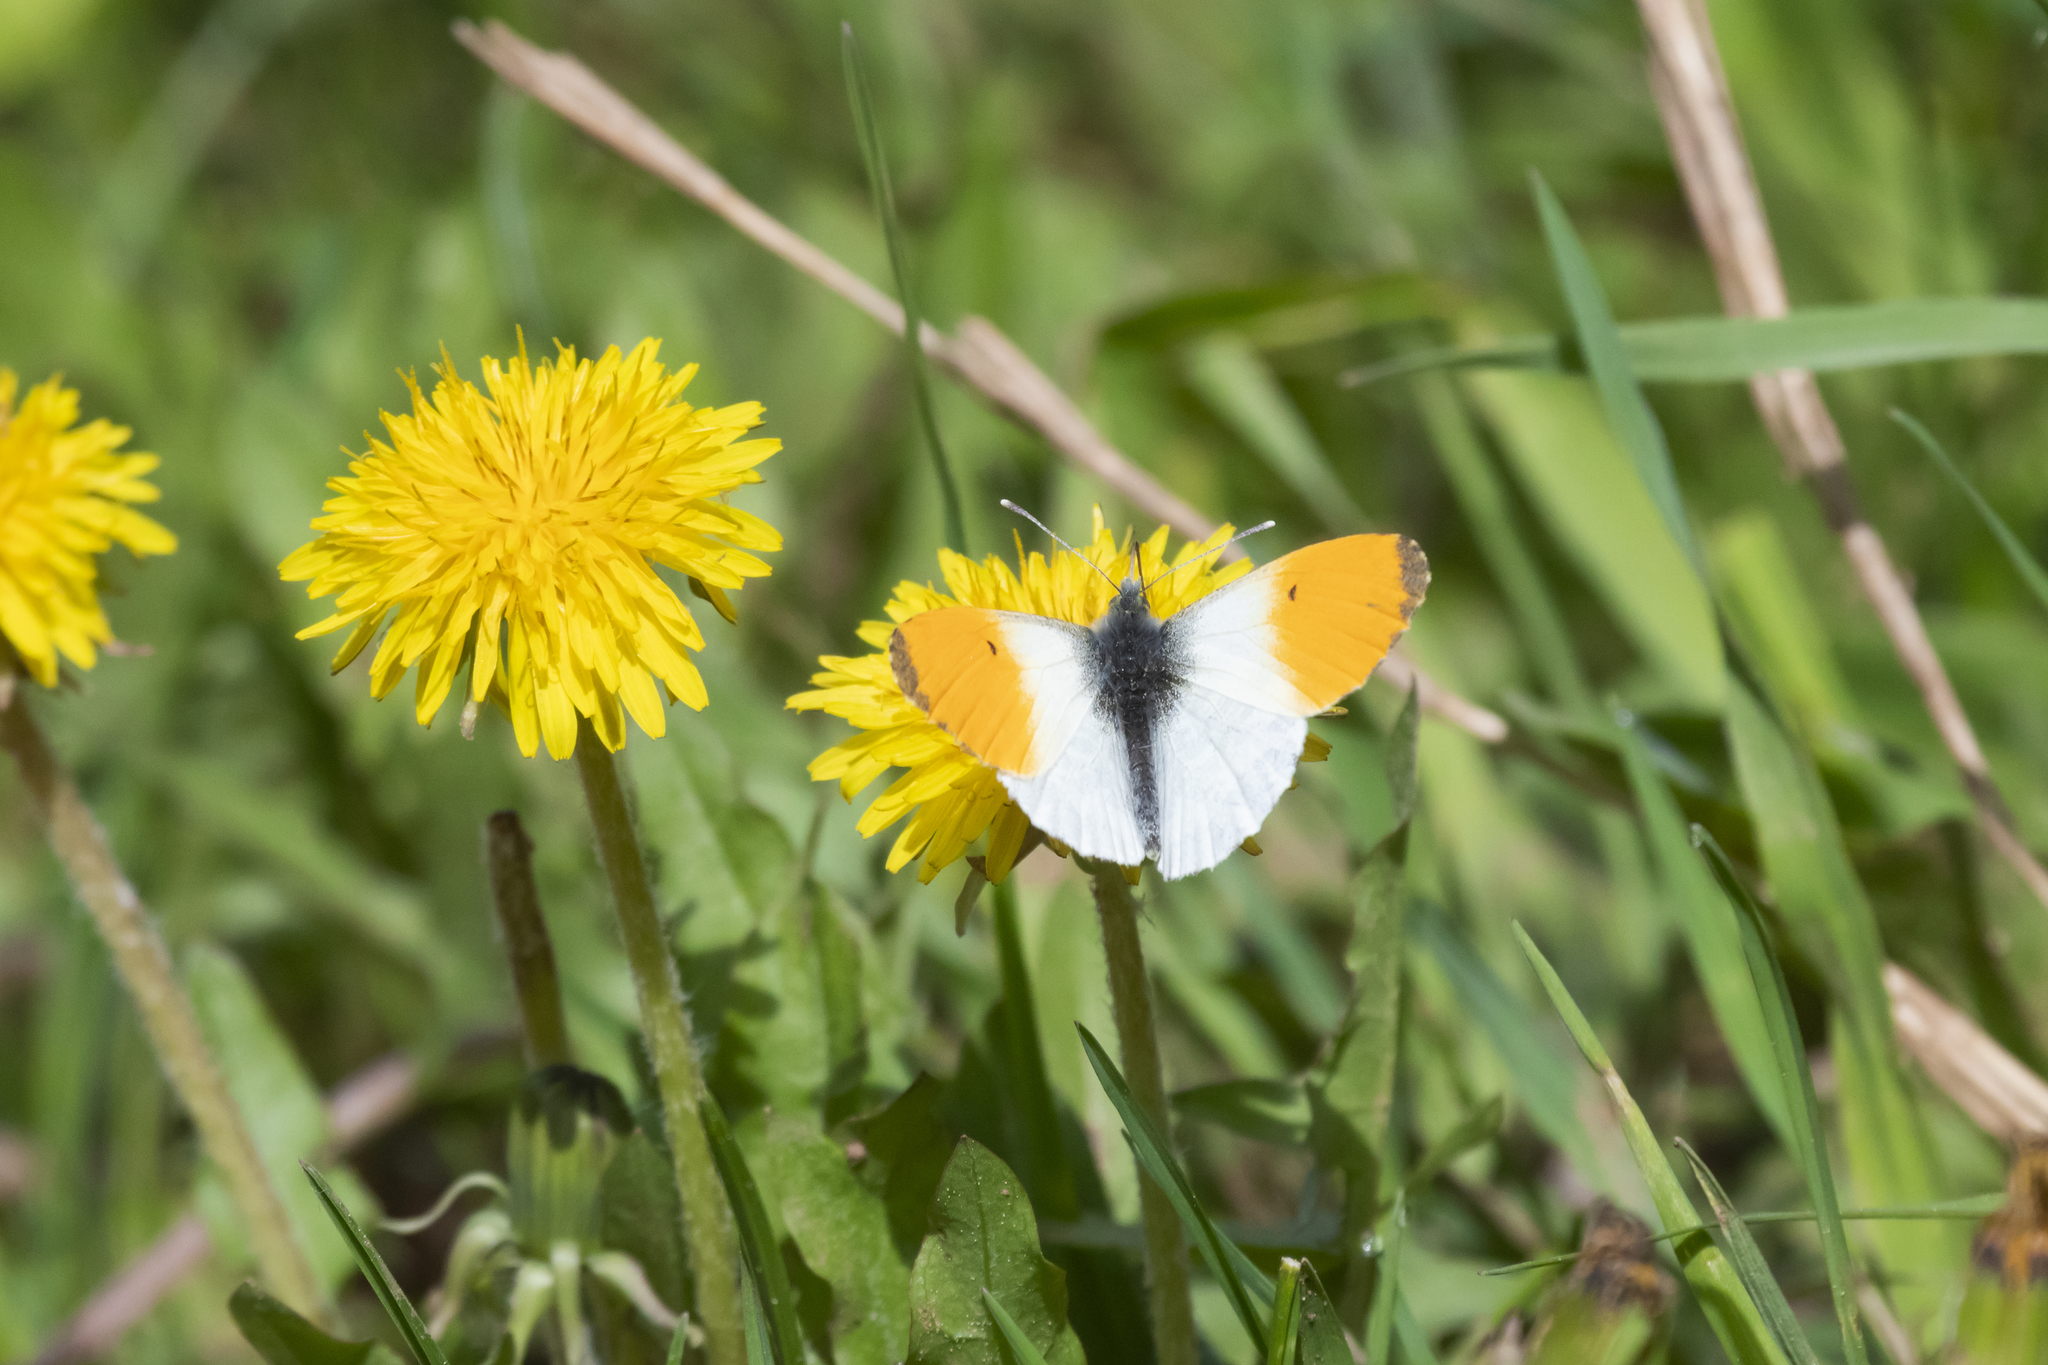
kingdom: Animalia
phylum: Arthropoda
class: Insecta
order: Lepidoptera
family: Pieridae
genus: Anthocharis
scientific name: Anthocharis cardamines
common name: Orange-tip
